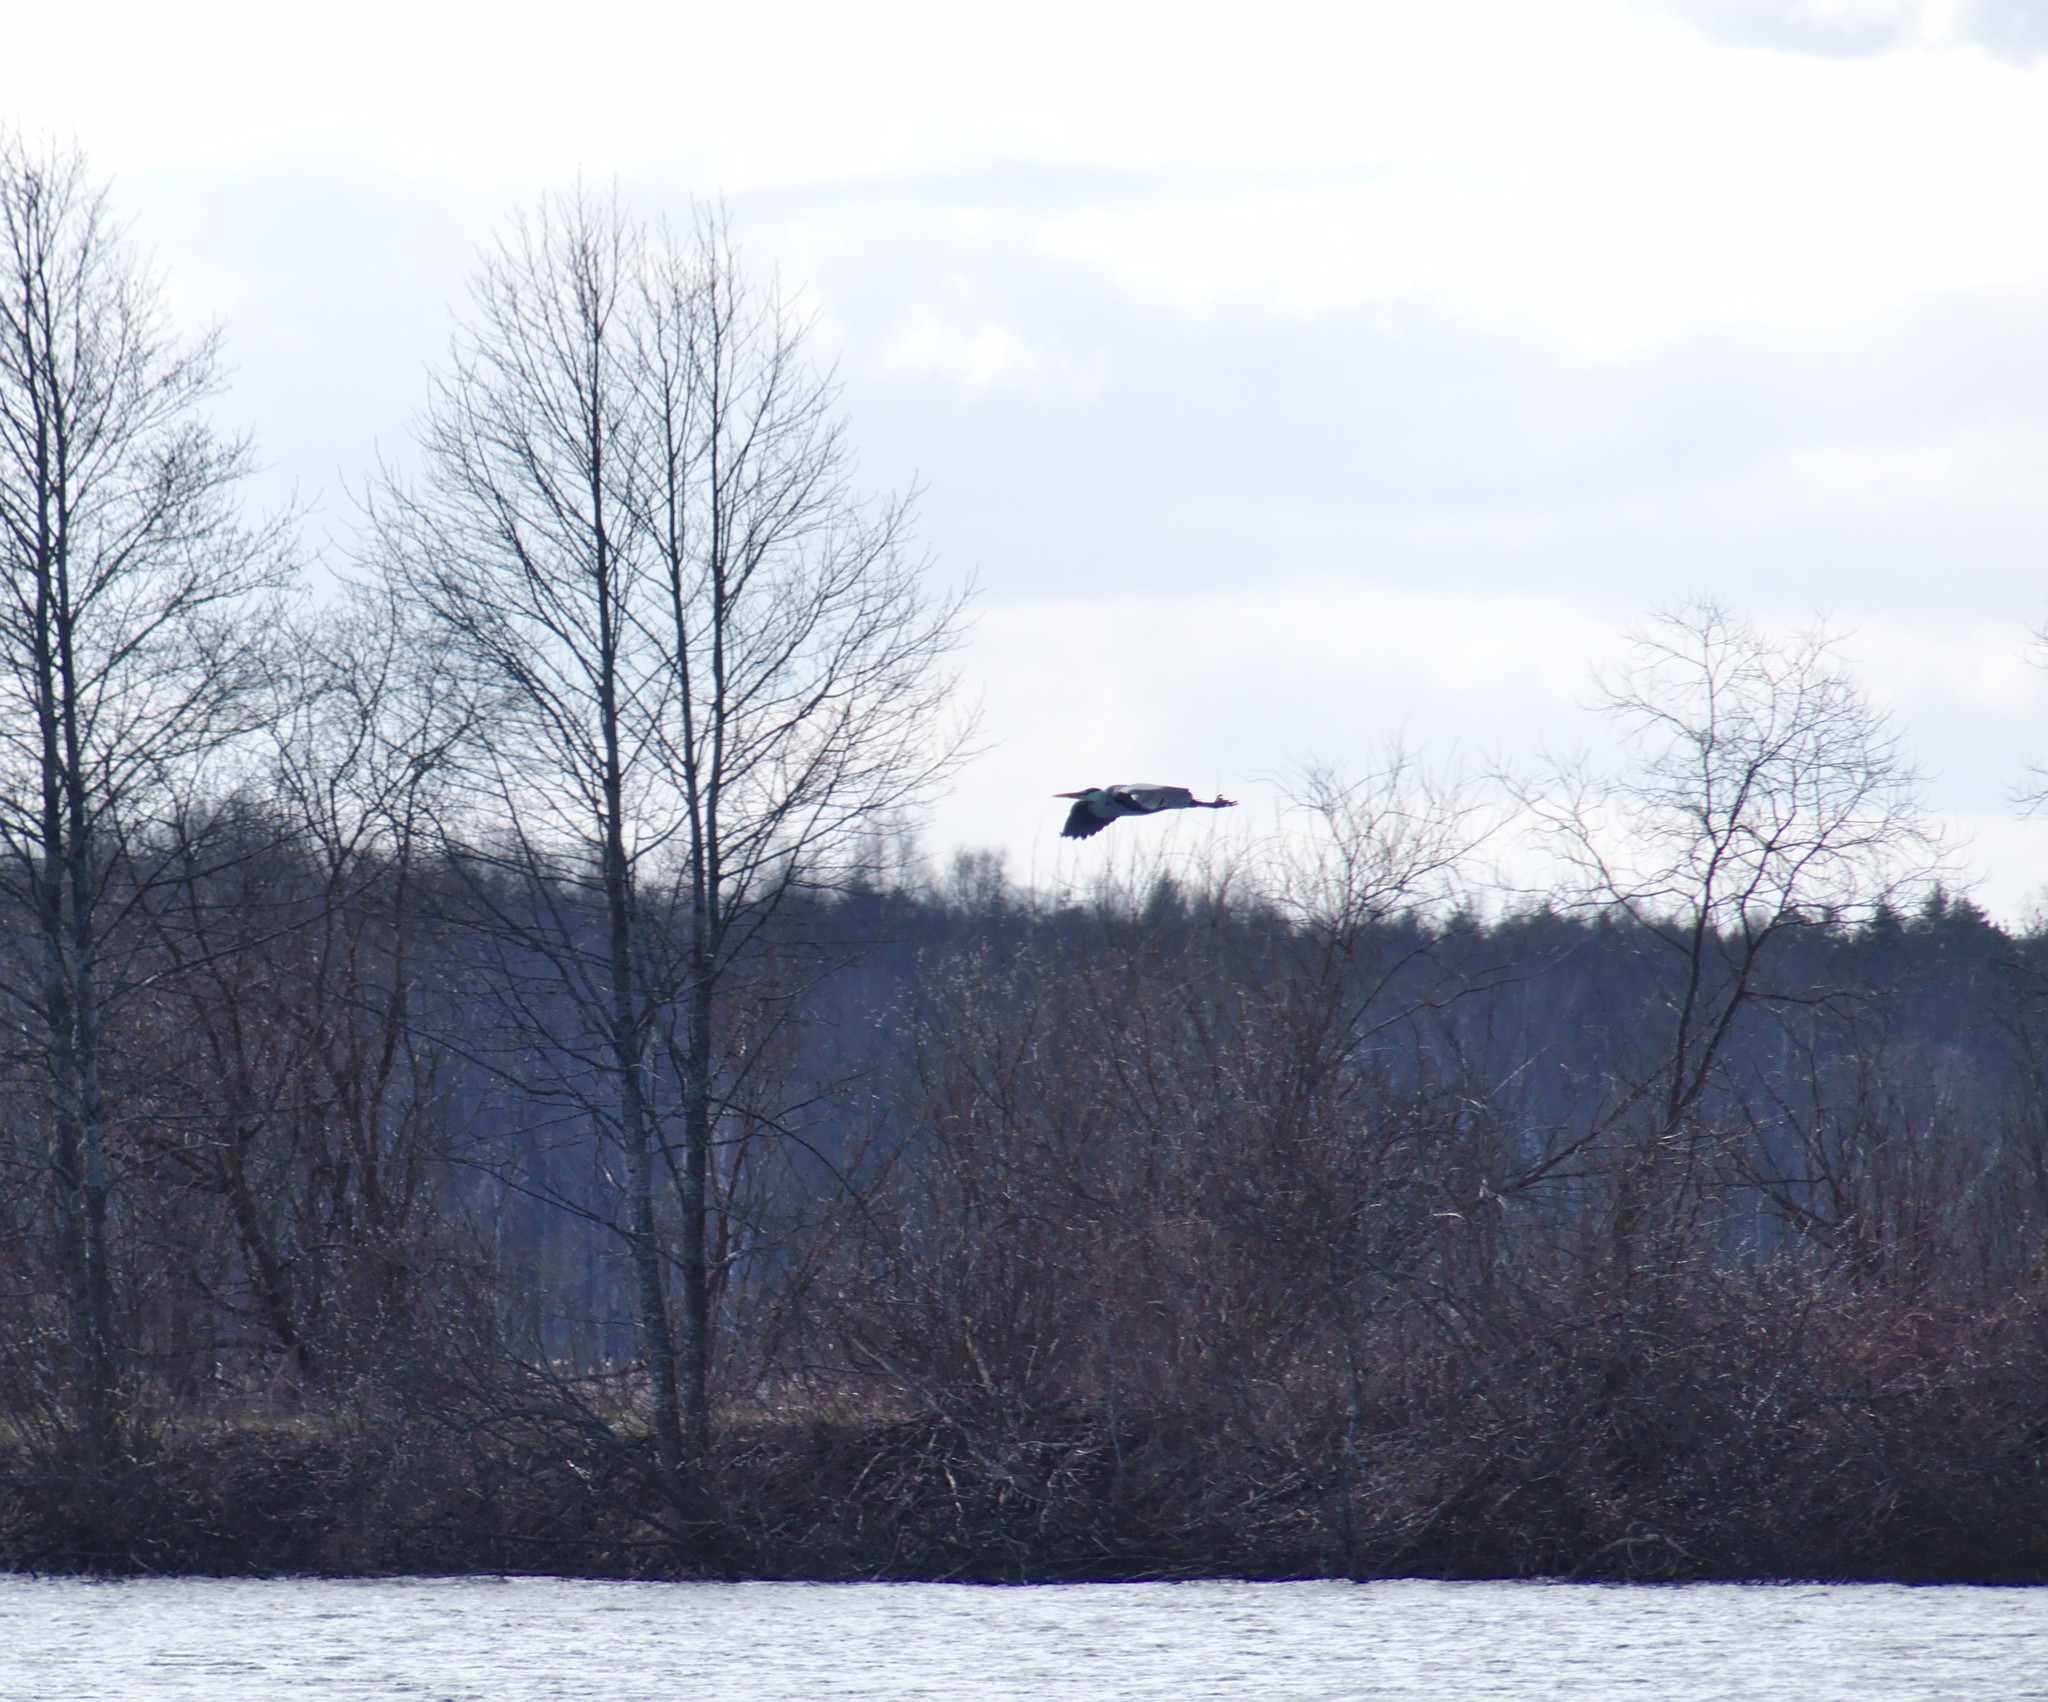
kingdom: Animalia
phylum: Chordata
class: Aves
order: Pelecaniformes
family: Ardeidae
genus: Ardea
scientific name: Ardea cinerea
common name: Grey heron
